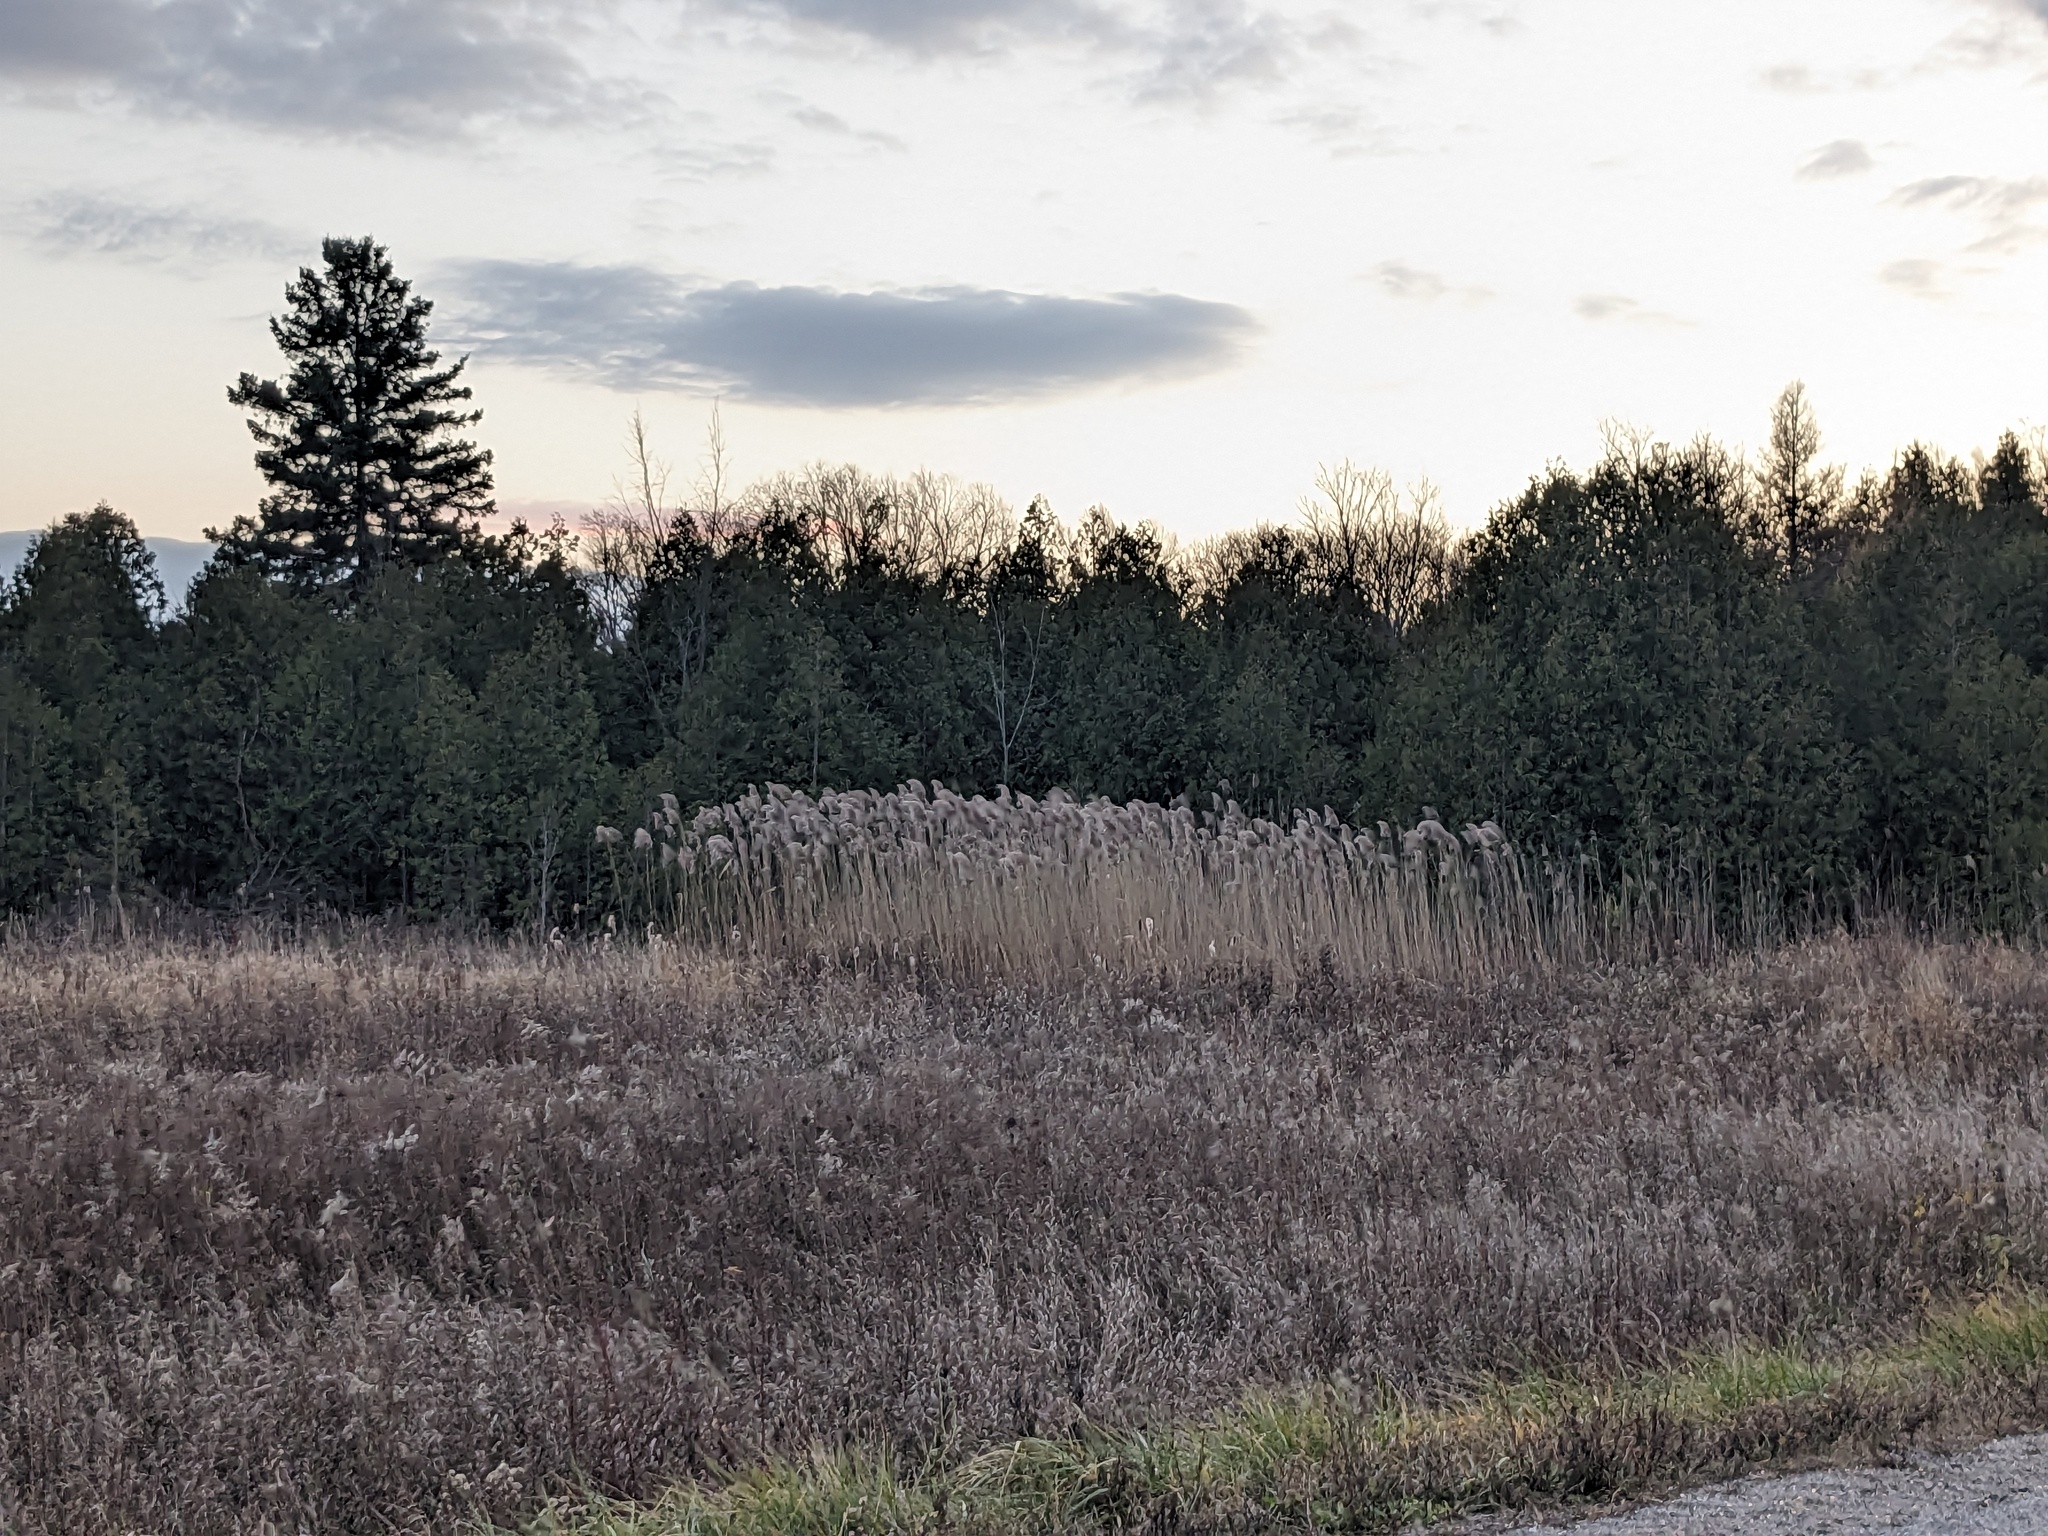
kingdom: Plantae
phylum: Tracheophyta
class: Liliopsida
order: Poales
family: Poaceae
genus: Phragmites
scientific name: Phragmites australis
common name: Common reed
